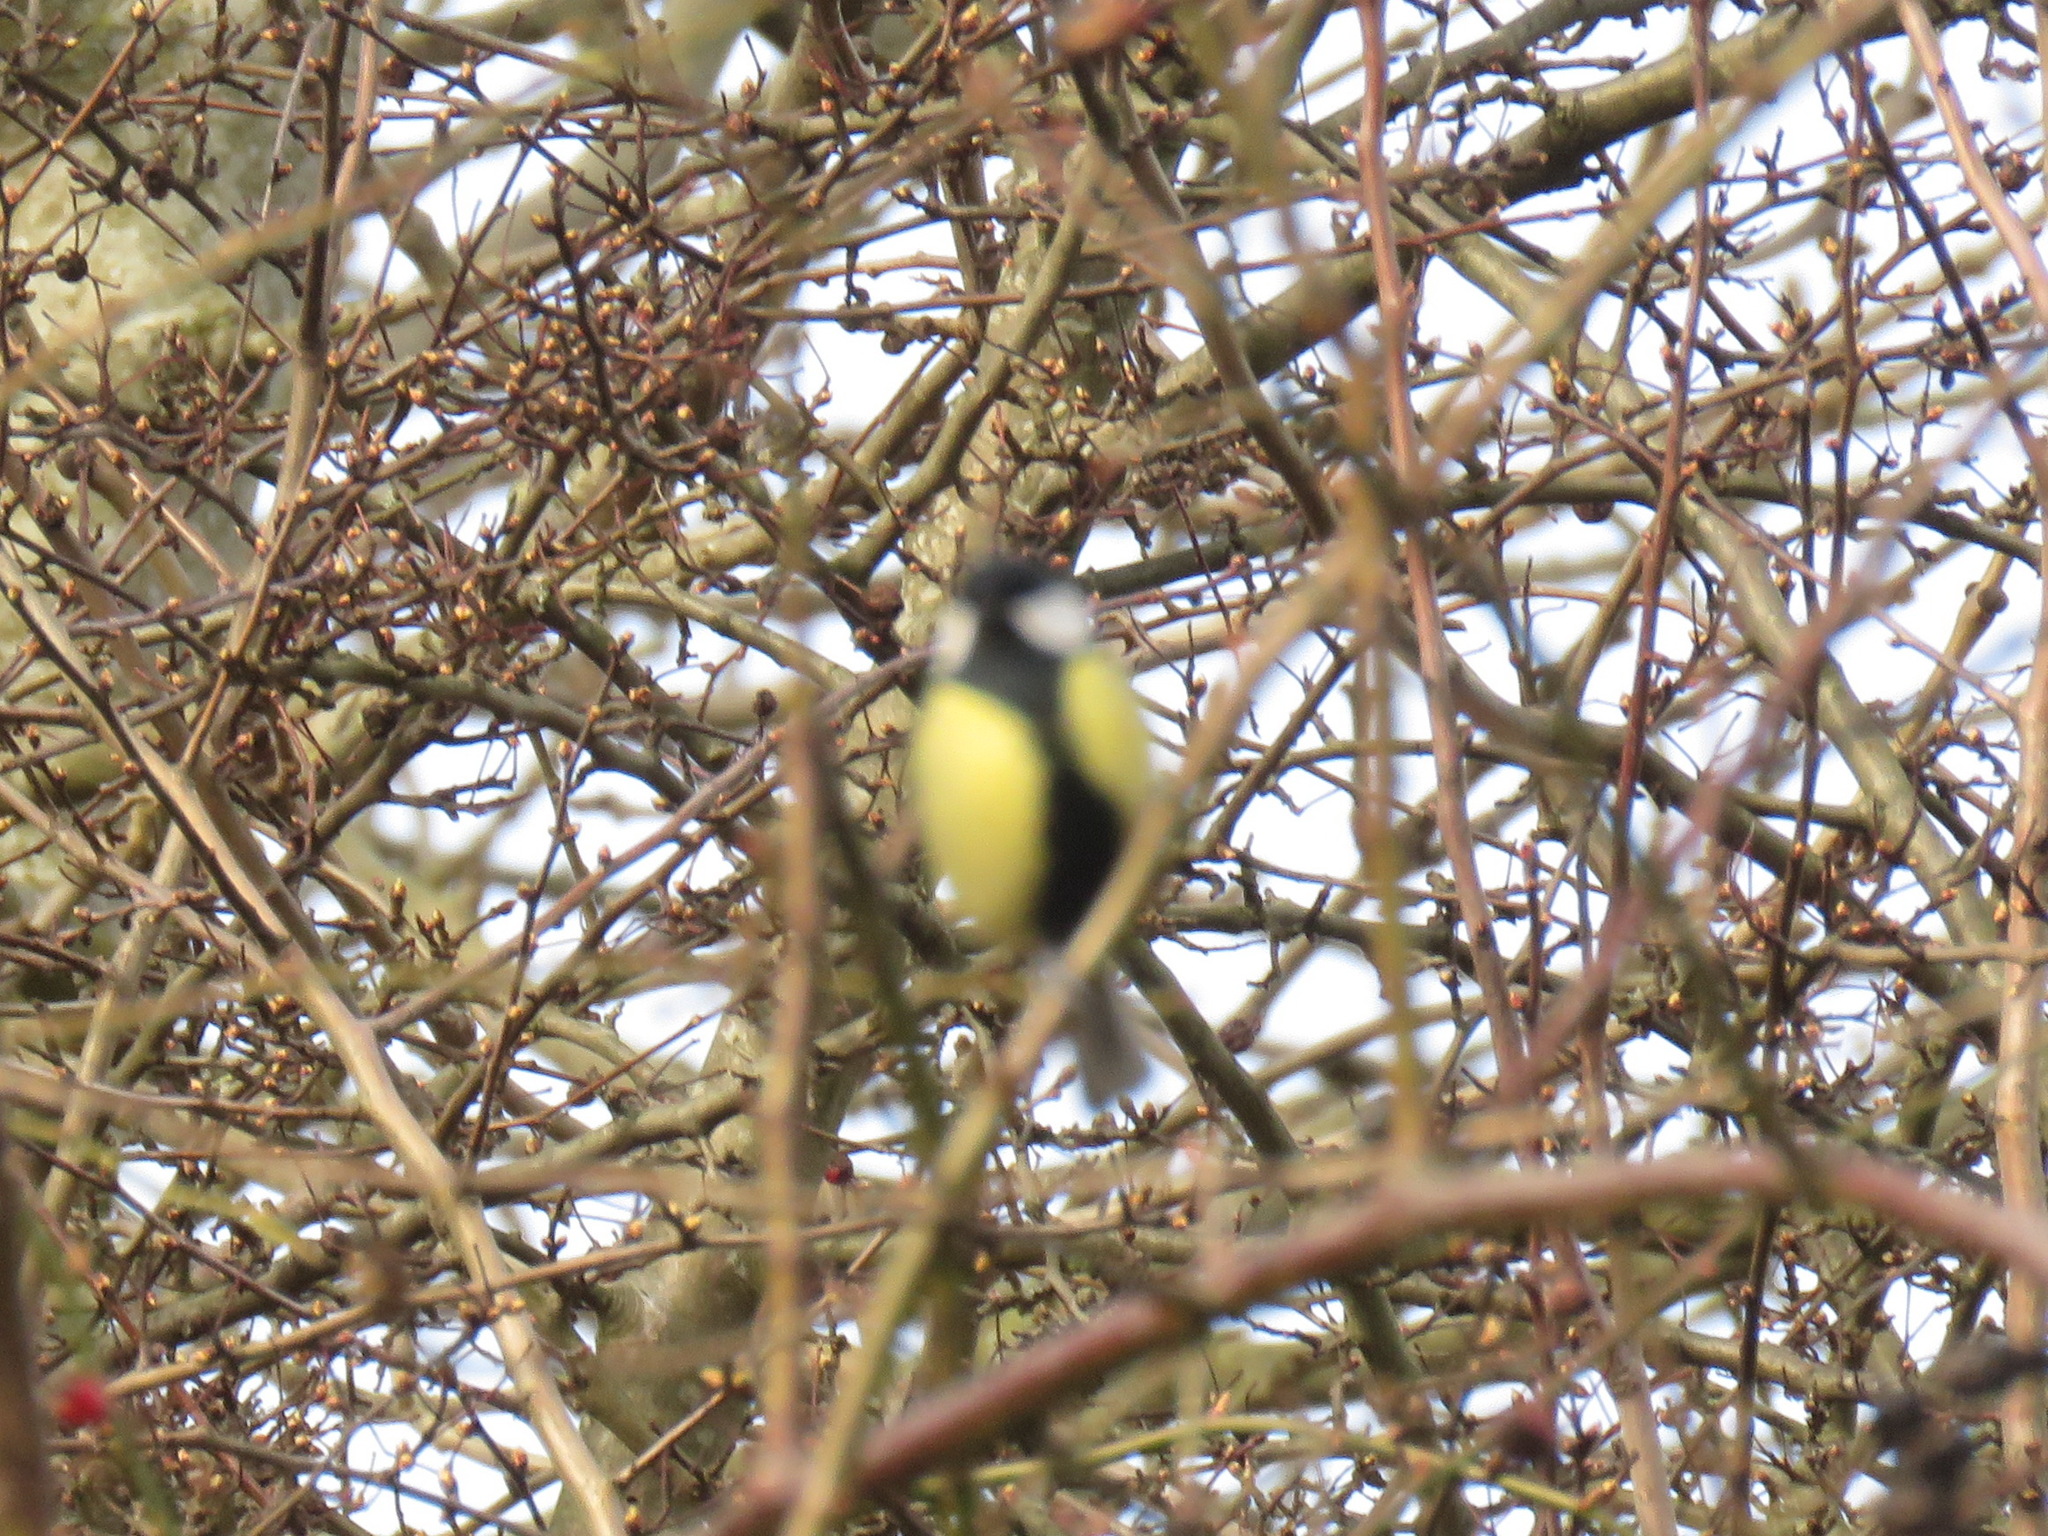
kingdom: Animalia
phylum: Chordata
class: Aves
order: Passeriformes
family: Paridae
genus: Parus
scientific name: Parus major
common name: Great tit
